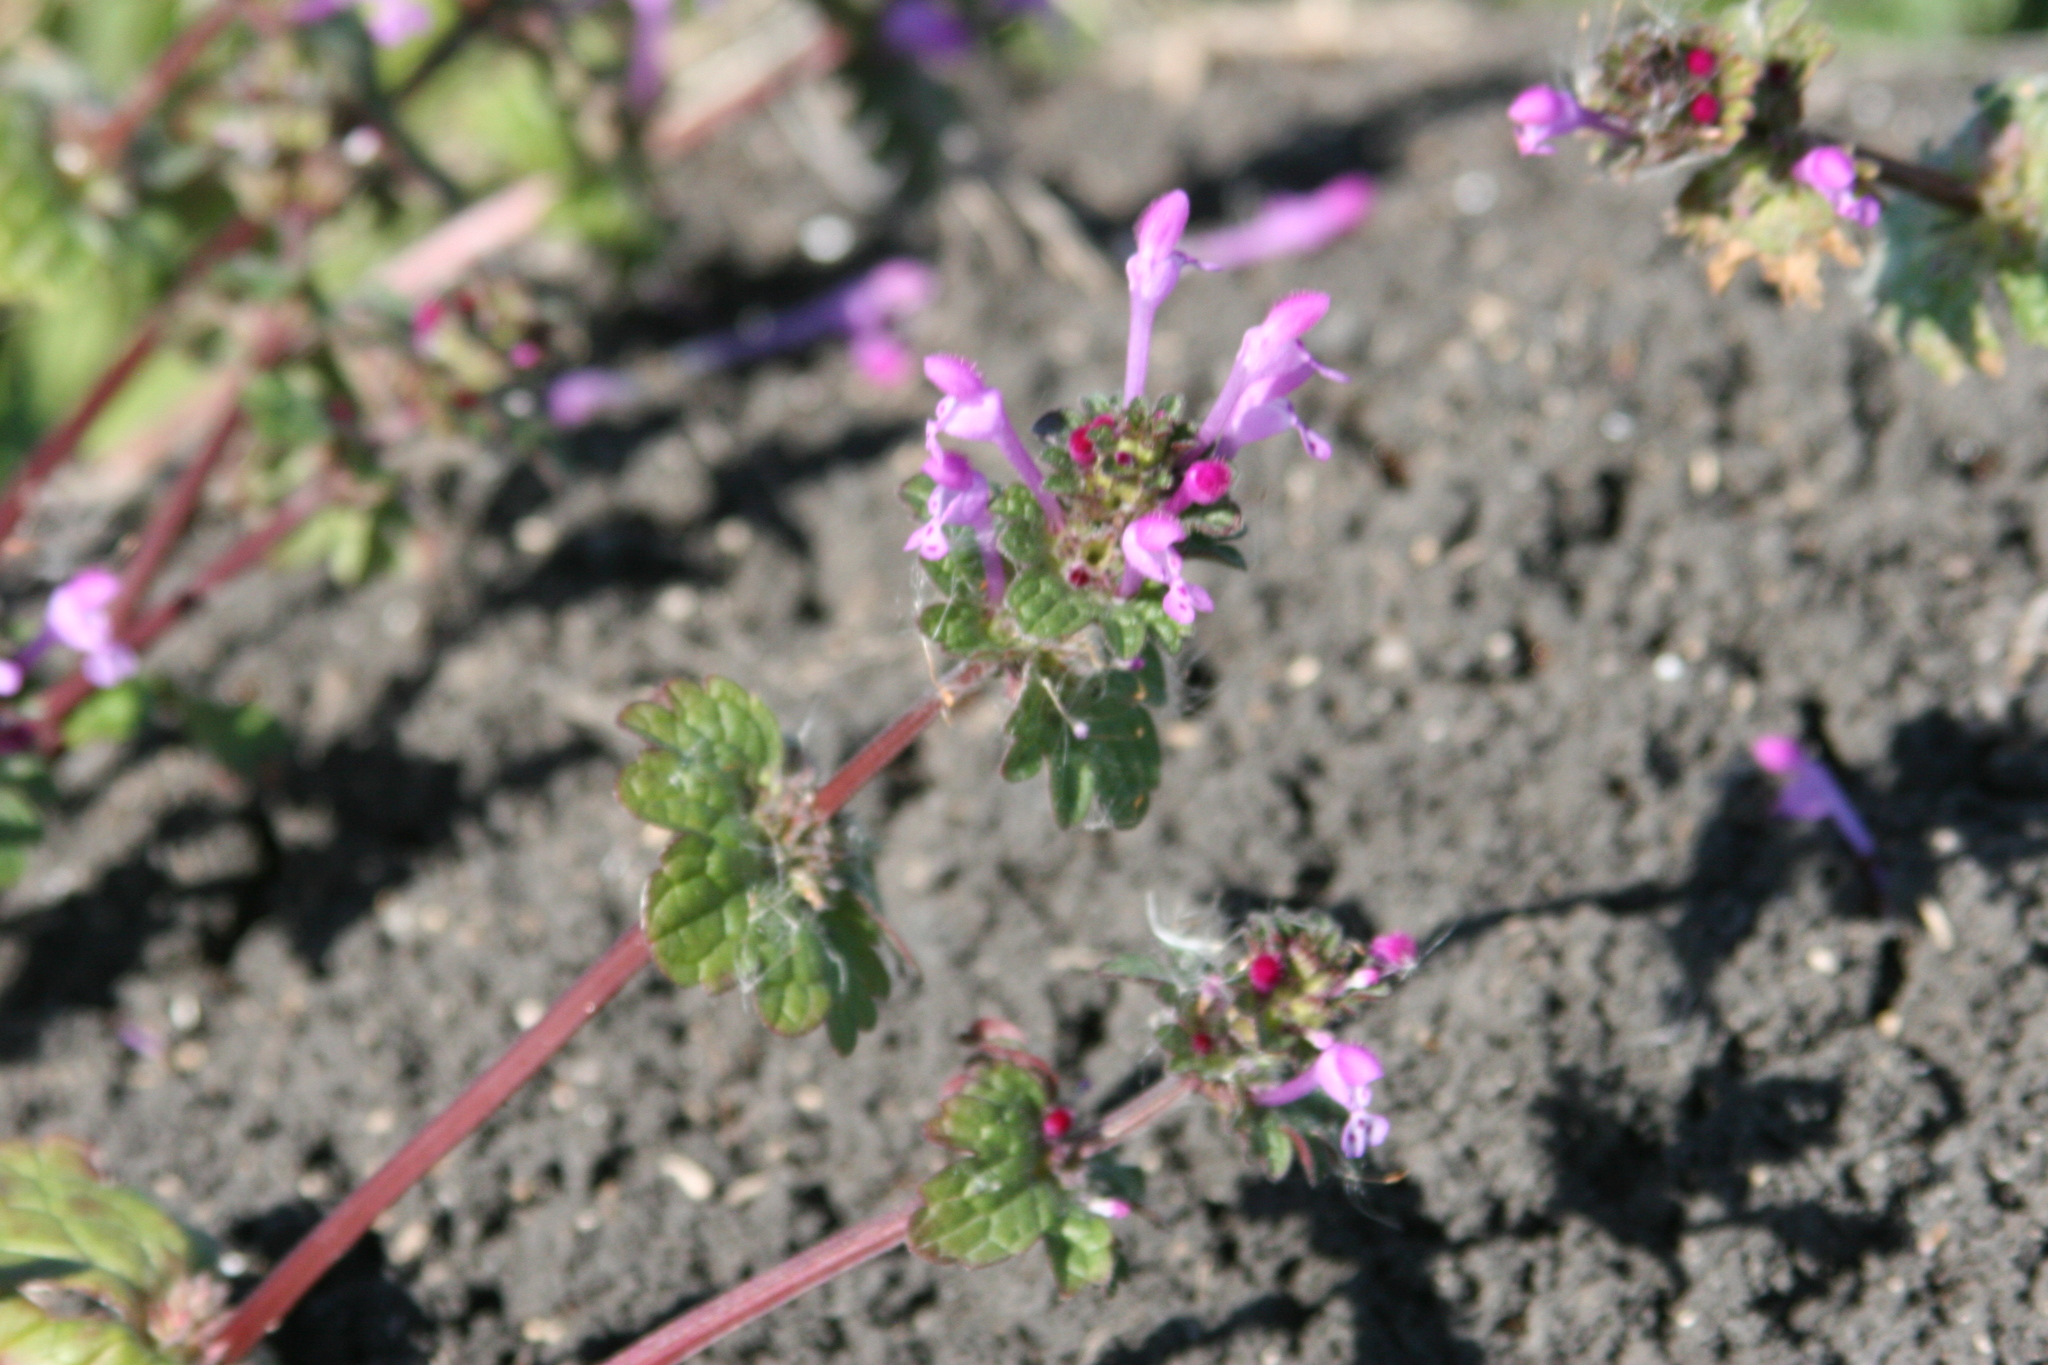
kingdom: Plantae
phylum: Tracheophyta
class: Magnoliopsida
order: Lamiales
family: Lamiaceae
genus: Lamium
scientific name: Lamium amplexicaule
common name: Henbit dead-nettle
